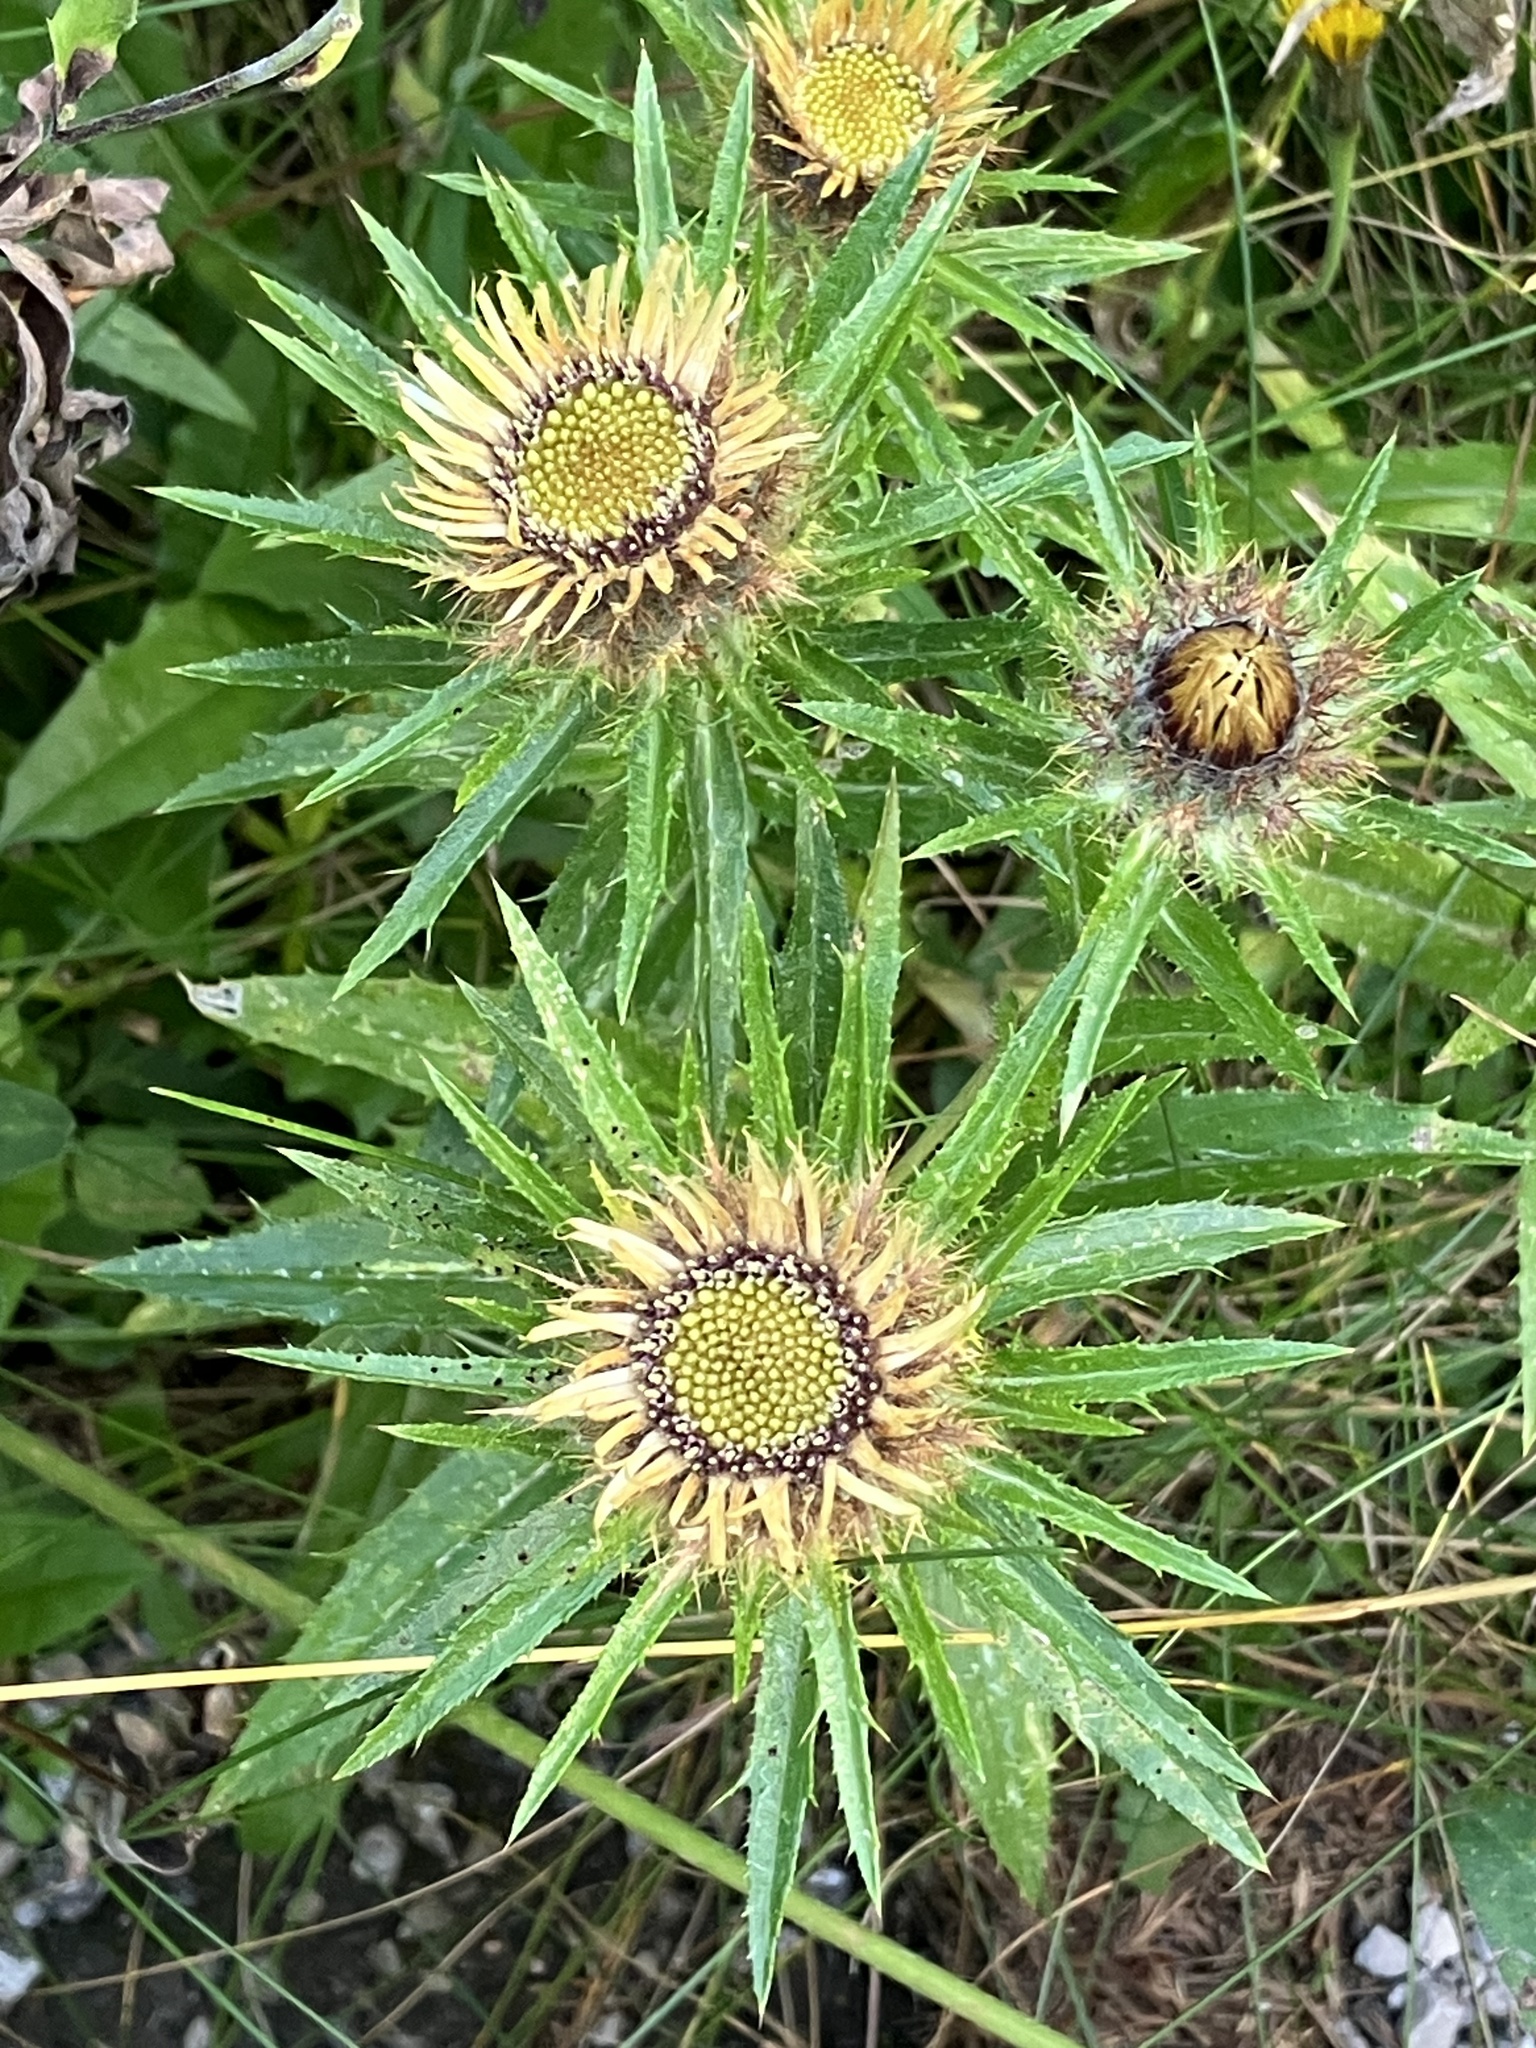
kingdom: Plantae
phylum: Tracheophyta
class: Magnoliopsida
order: Asterales
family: Asteraceae
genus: Carlina
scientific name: Carlina vulgaris
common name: Carline thistle
